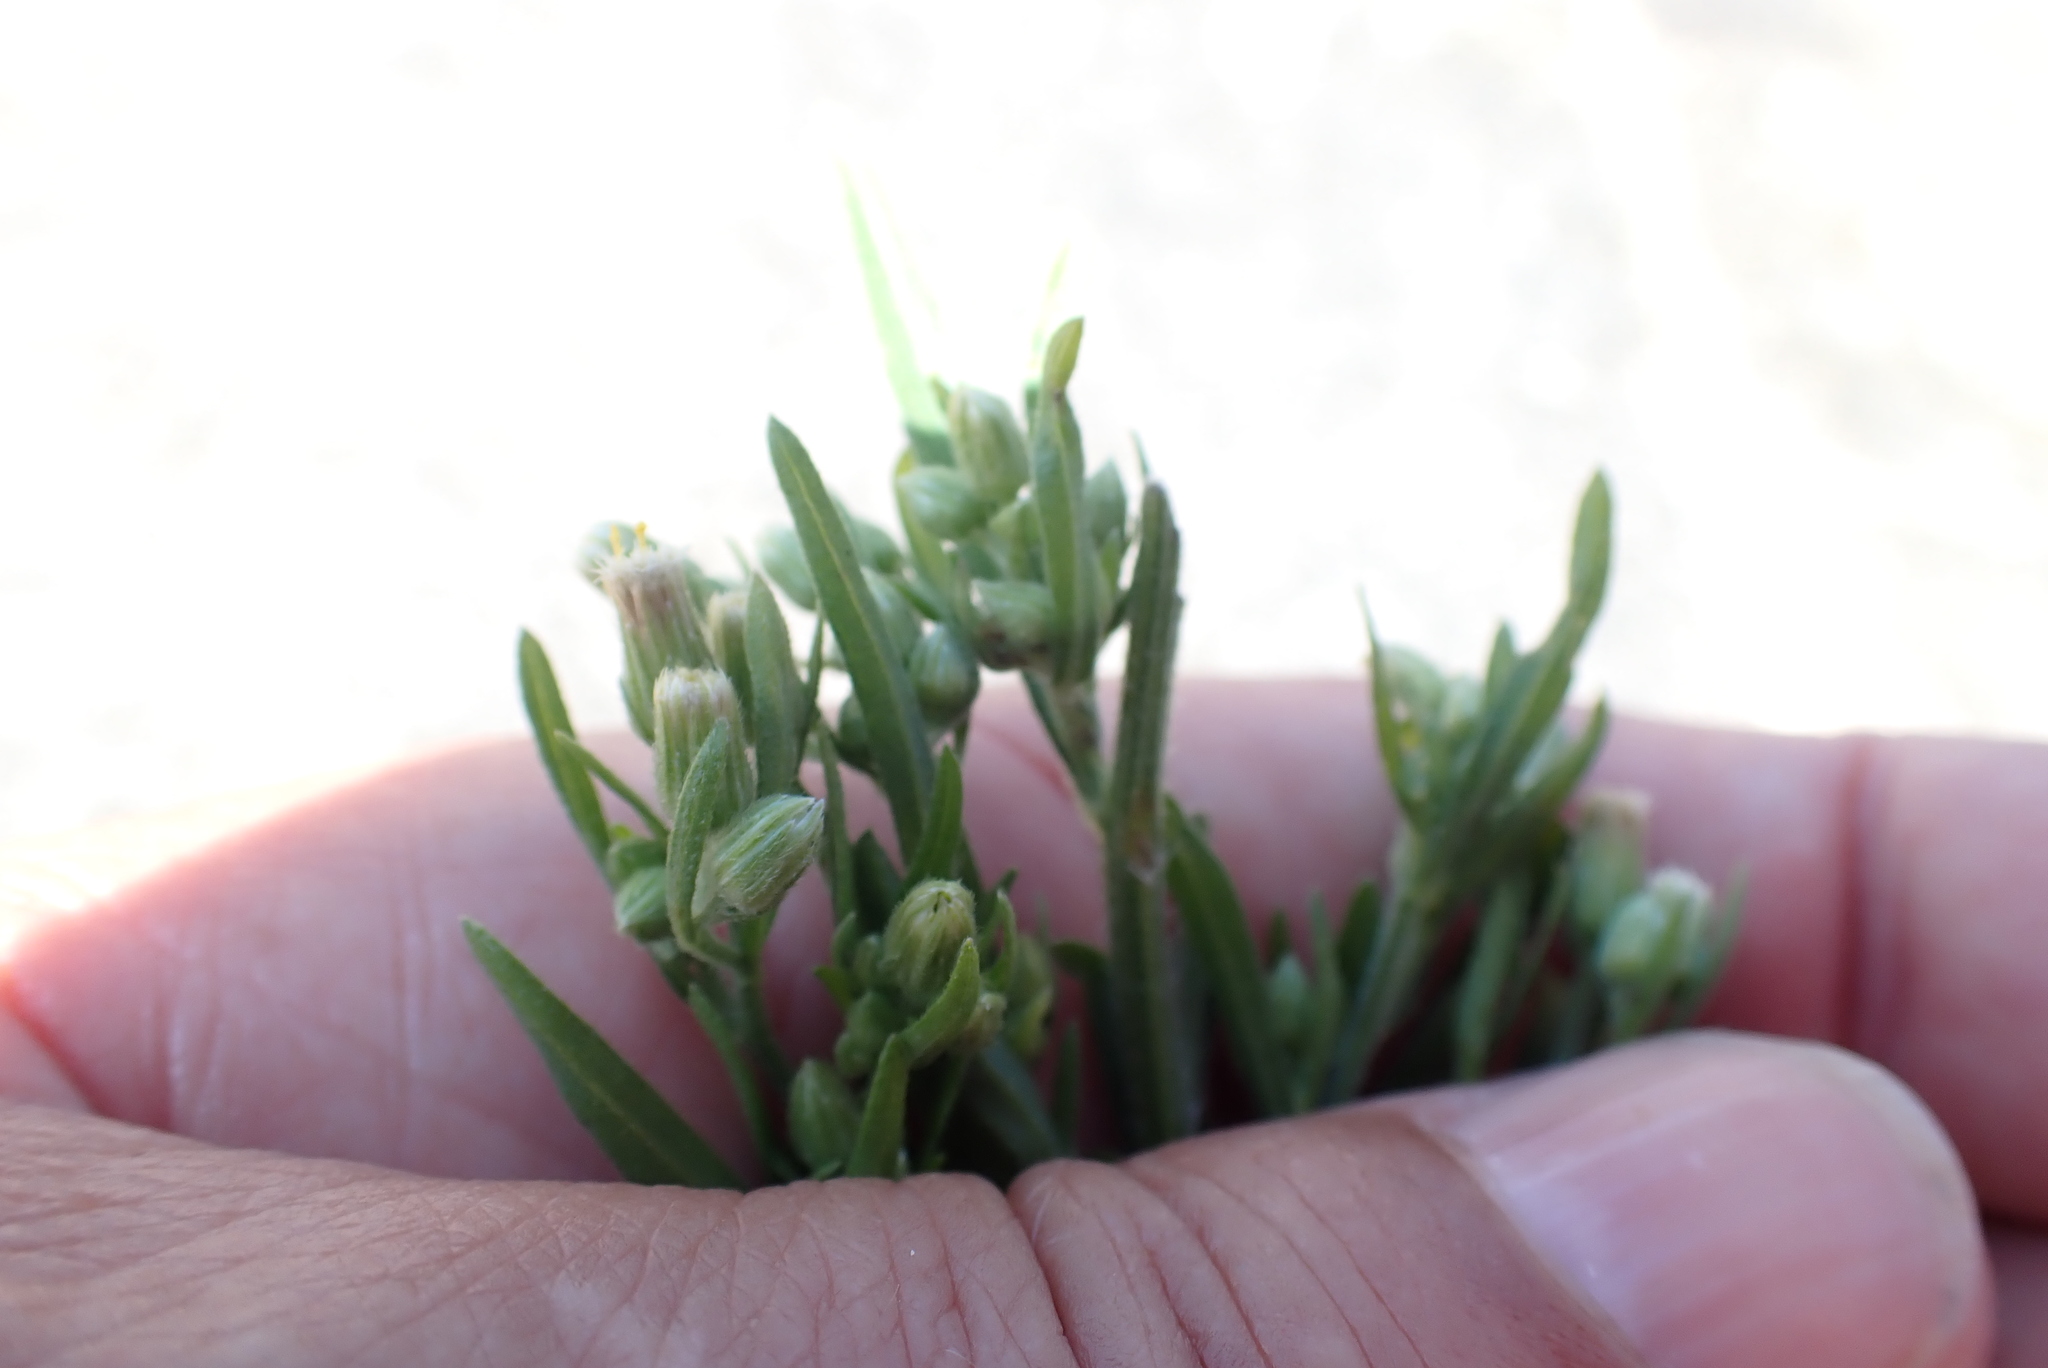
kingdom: Plantae
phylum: Tracheophyta
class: Magnoliopsida
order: Asterales
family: Asteraceae
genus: Erigeron
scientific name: Erigeron sumatrensis
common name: Daisy
